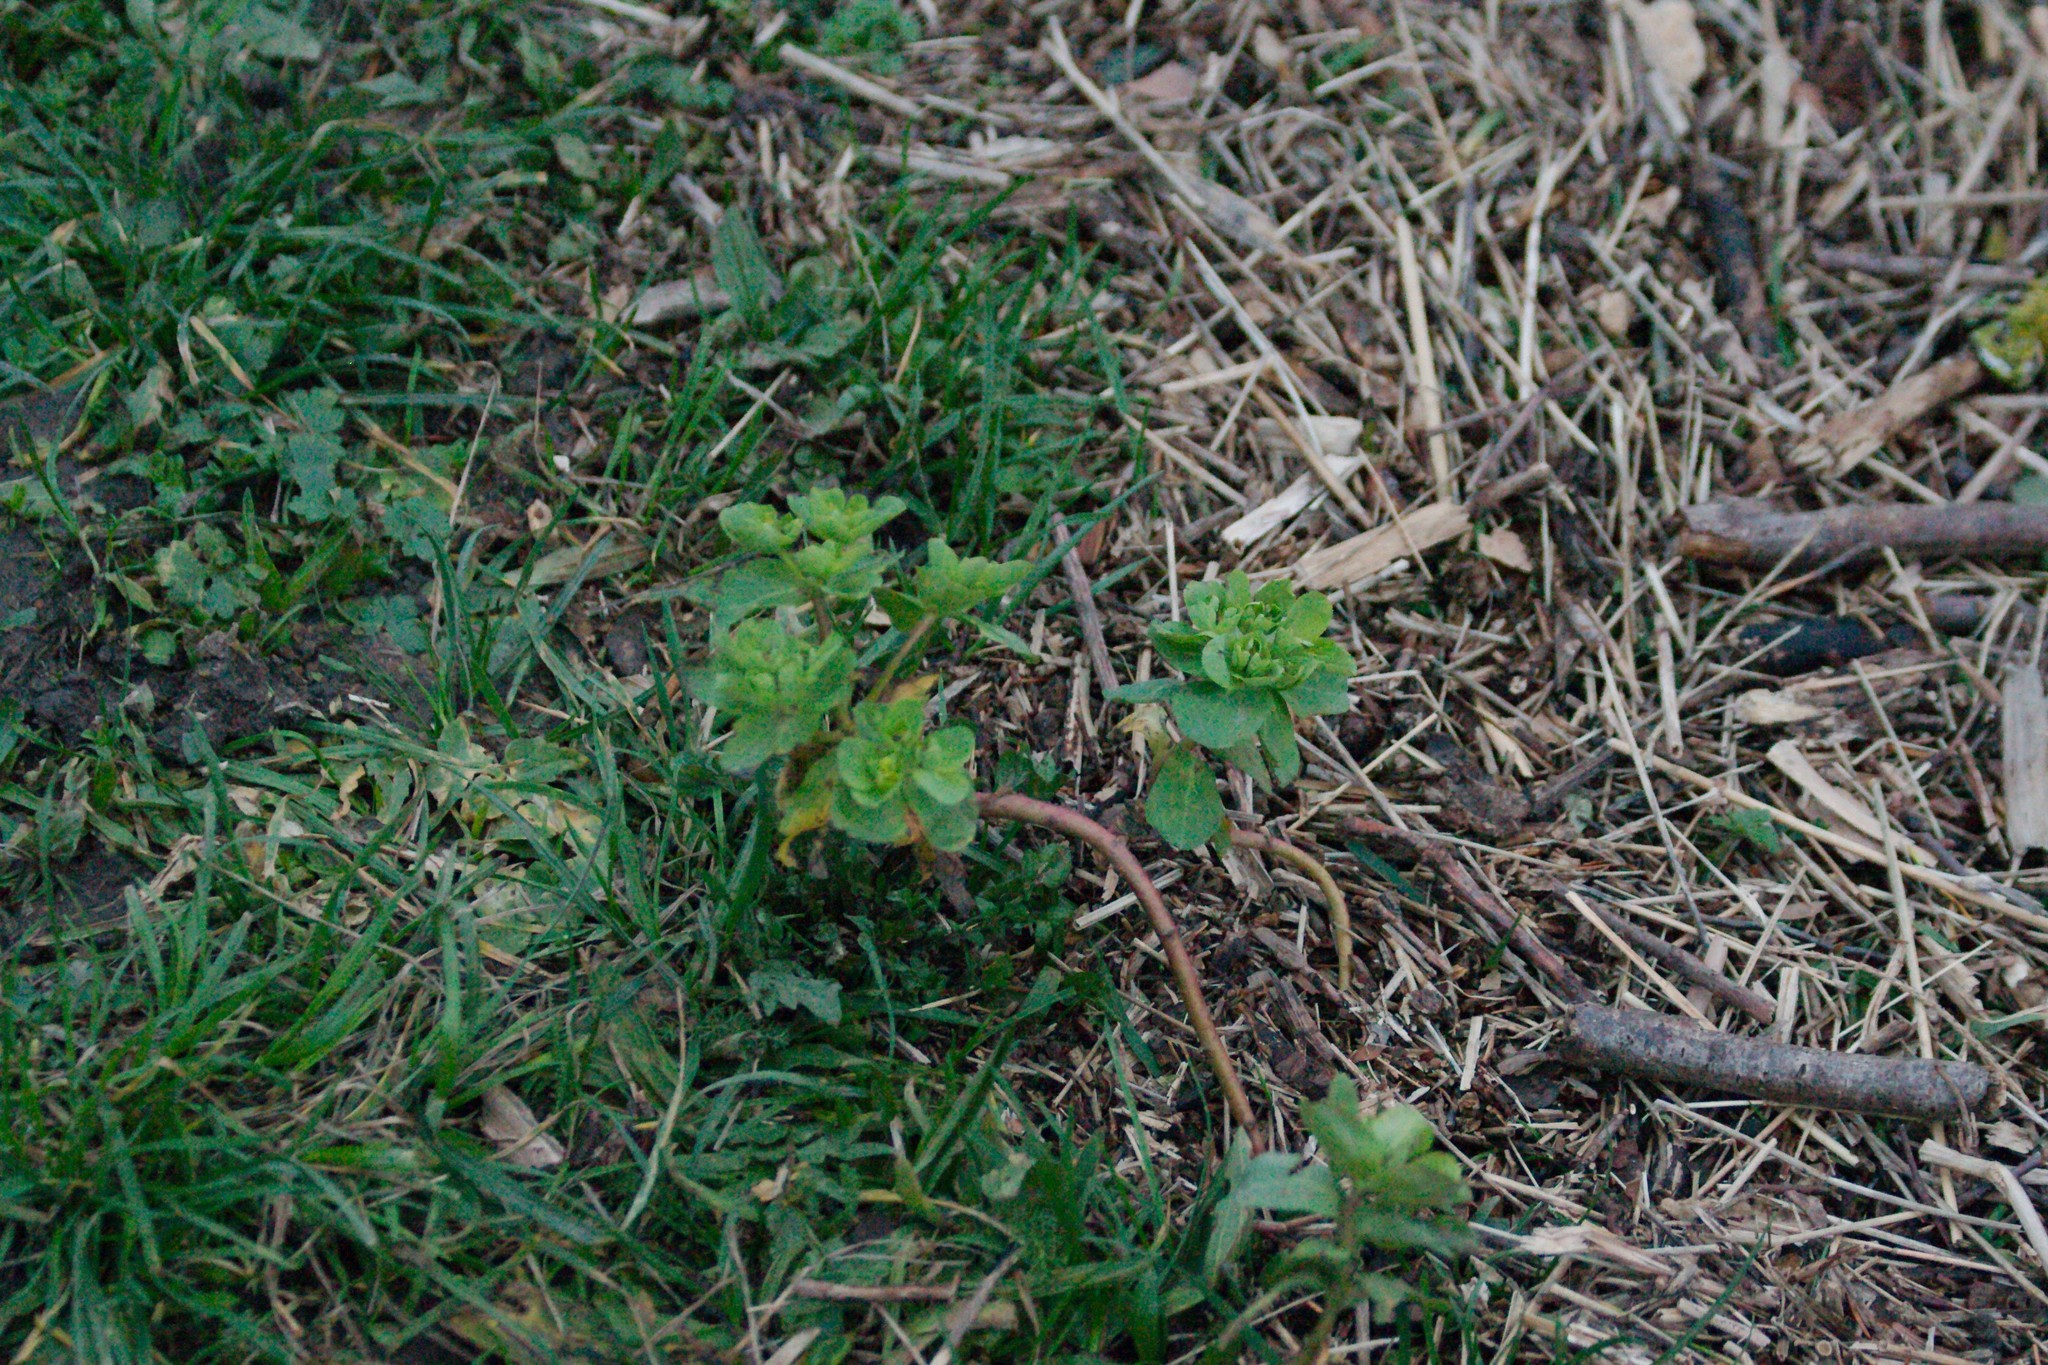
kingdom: Plantae
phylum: Tracheophyta
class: Magnoliopsida
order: Malpighiales
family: Euphorbiaceae
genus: Euphorbia
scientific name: Euphorbia helioscopia
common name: Sun spurge
